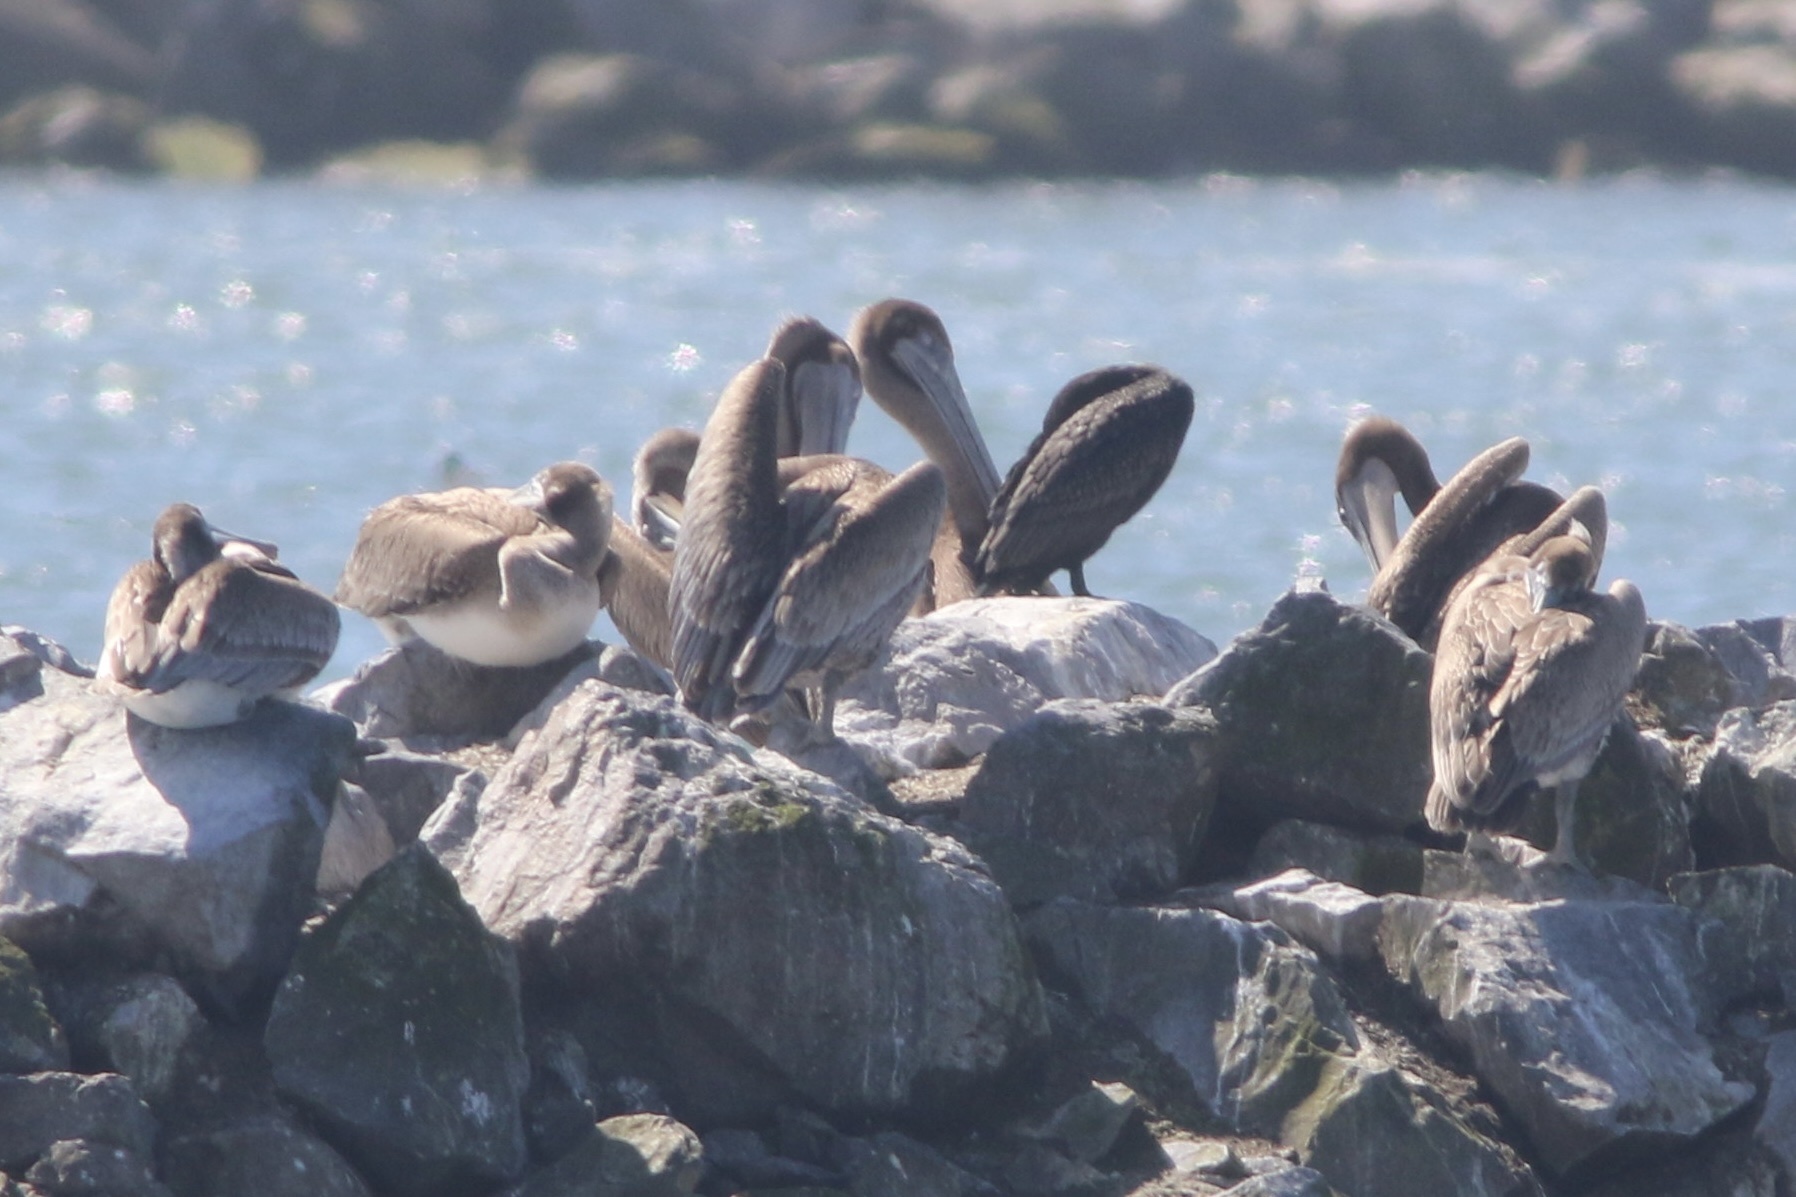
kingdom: Animalia
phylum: Chordata
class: Aves
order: Pelecaniformes
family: Pelecanidae
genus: Pelecanus
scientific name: Pelecanus occidentalis
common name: Brown pelican
